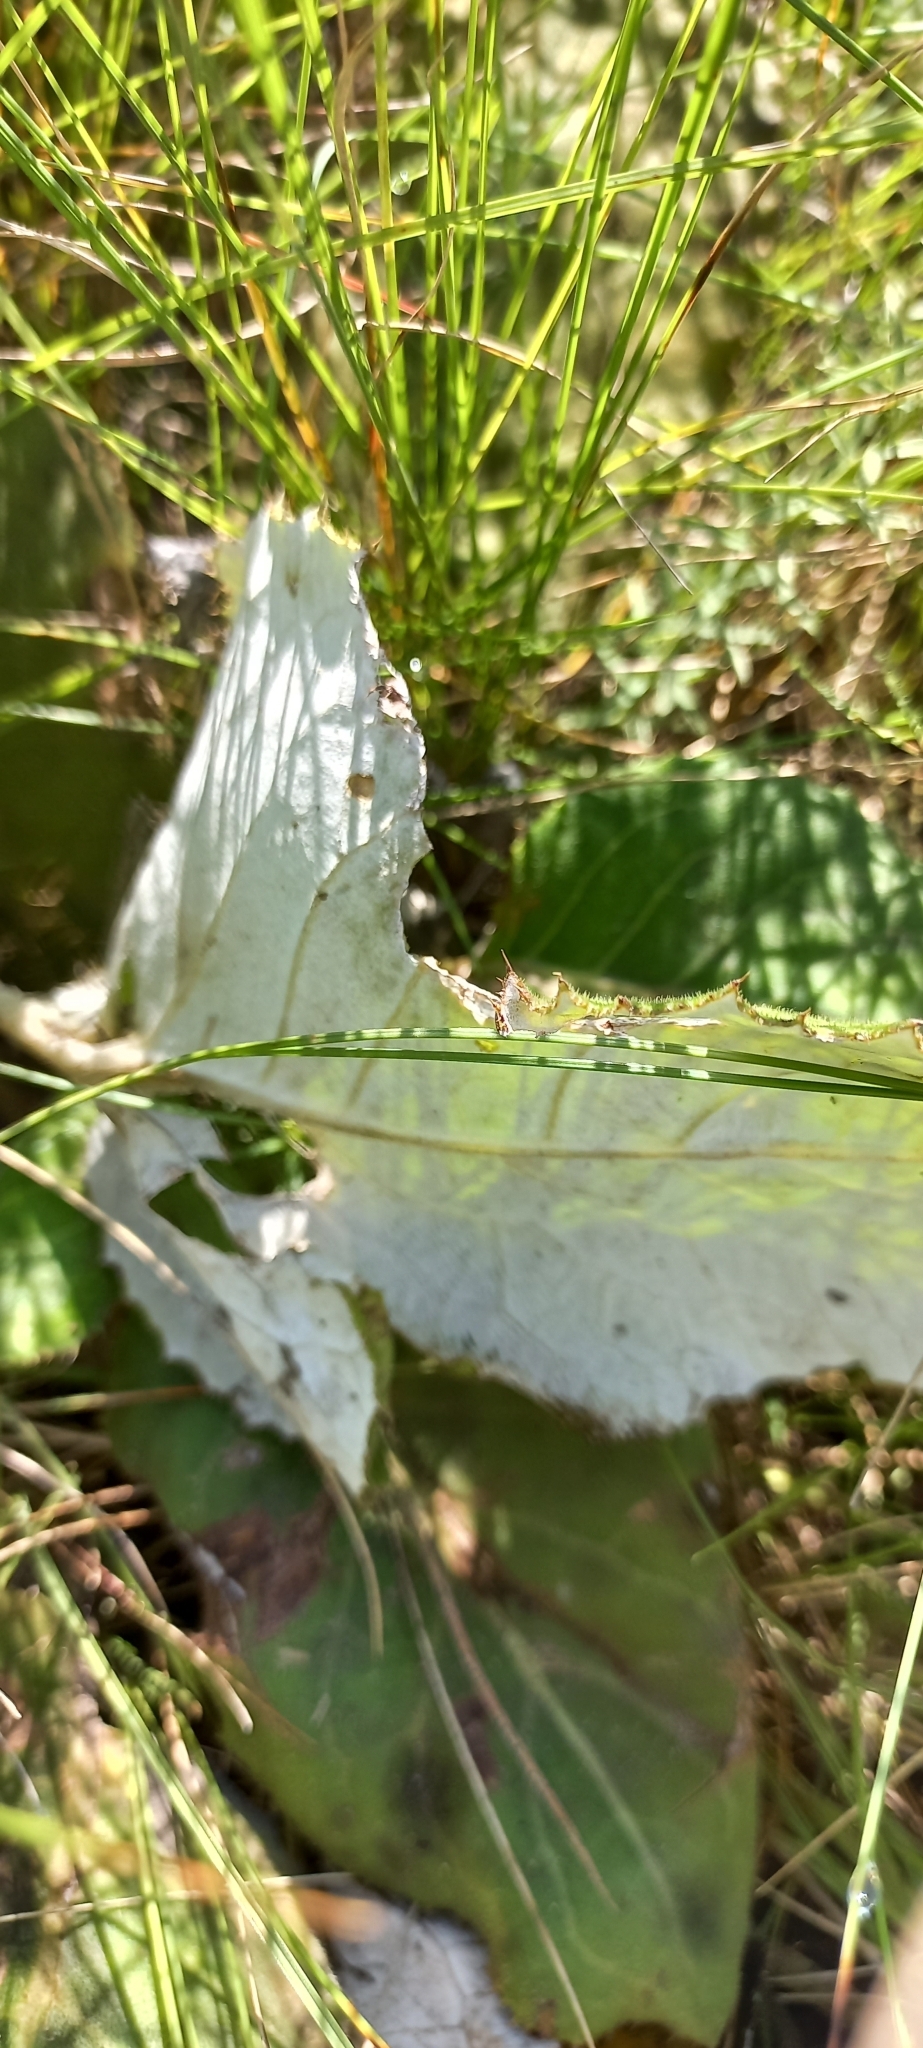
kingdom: Plantae
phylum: Tracheophyta
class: Magnoliopsida
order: Asterales
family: Asteraceae
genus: Berkheya
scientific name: Berkheya speciosa
